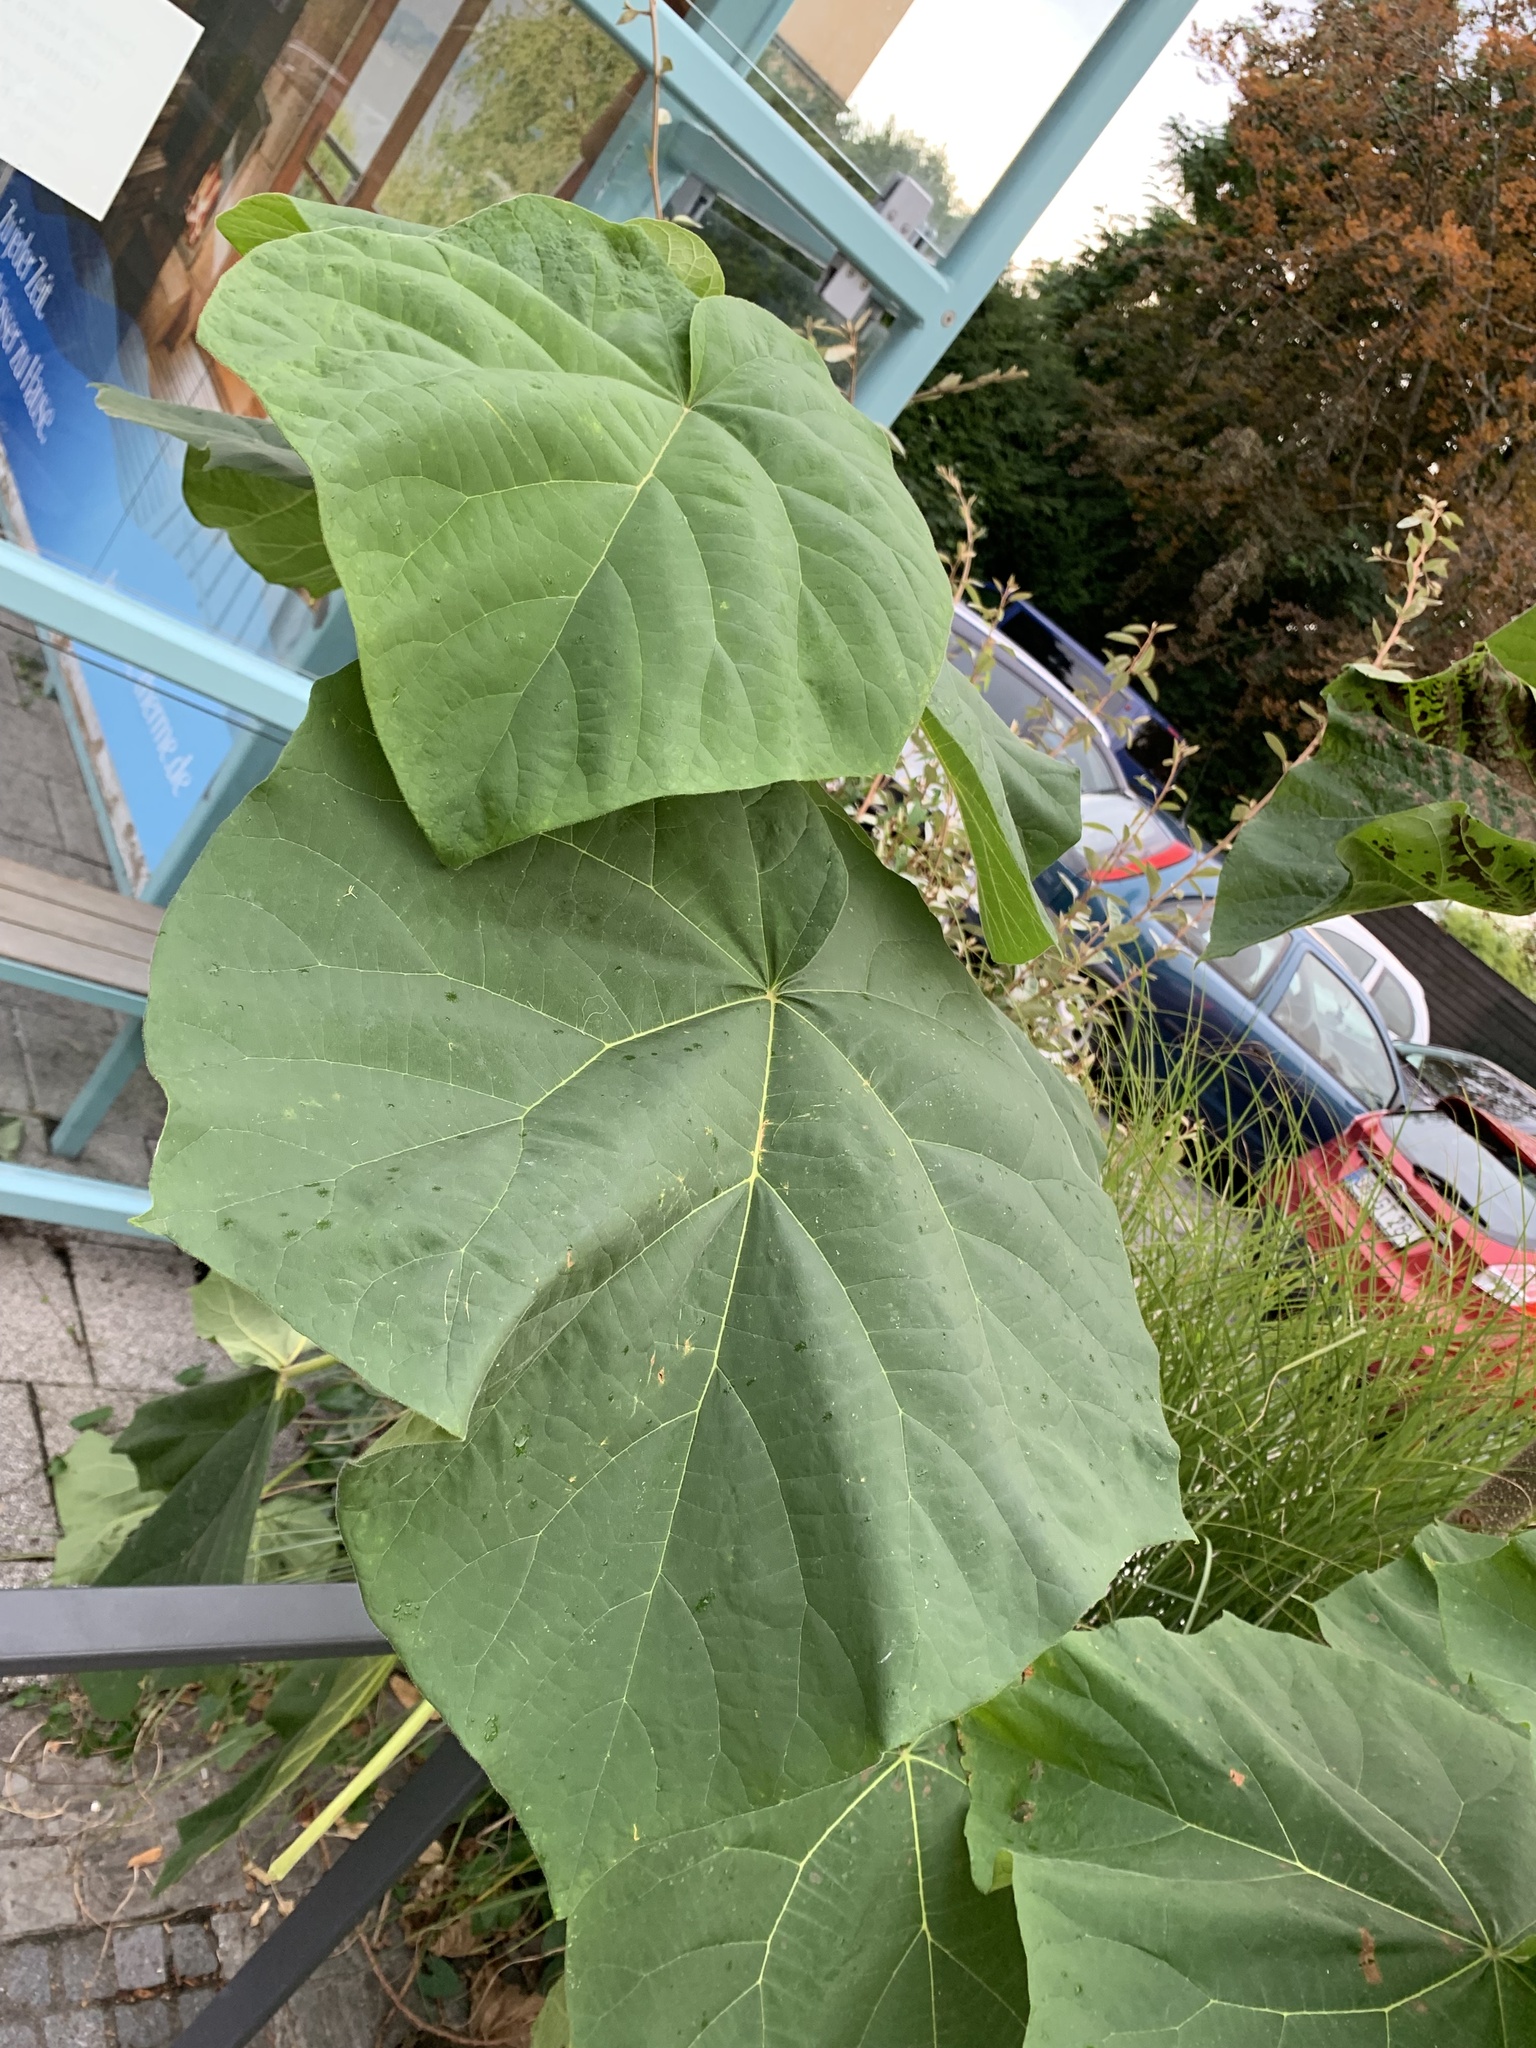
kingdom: Plantae
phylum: Tracheophyta
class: Magnoliopsida
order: Lamiales
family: Paulowniaceae
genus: Paulownia
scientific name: Paulownia tomentosa
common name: Foxglove-tree
